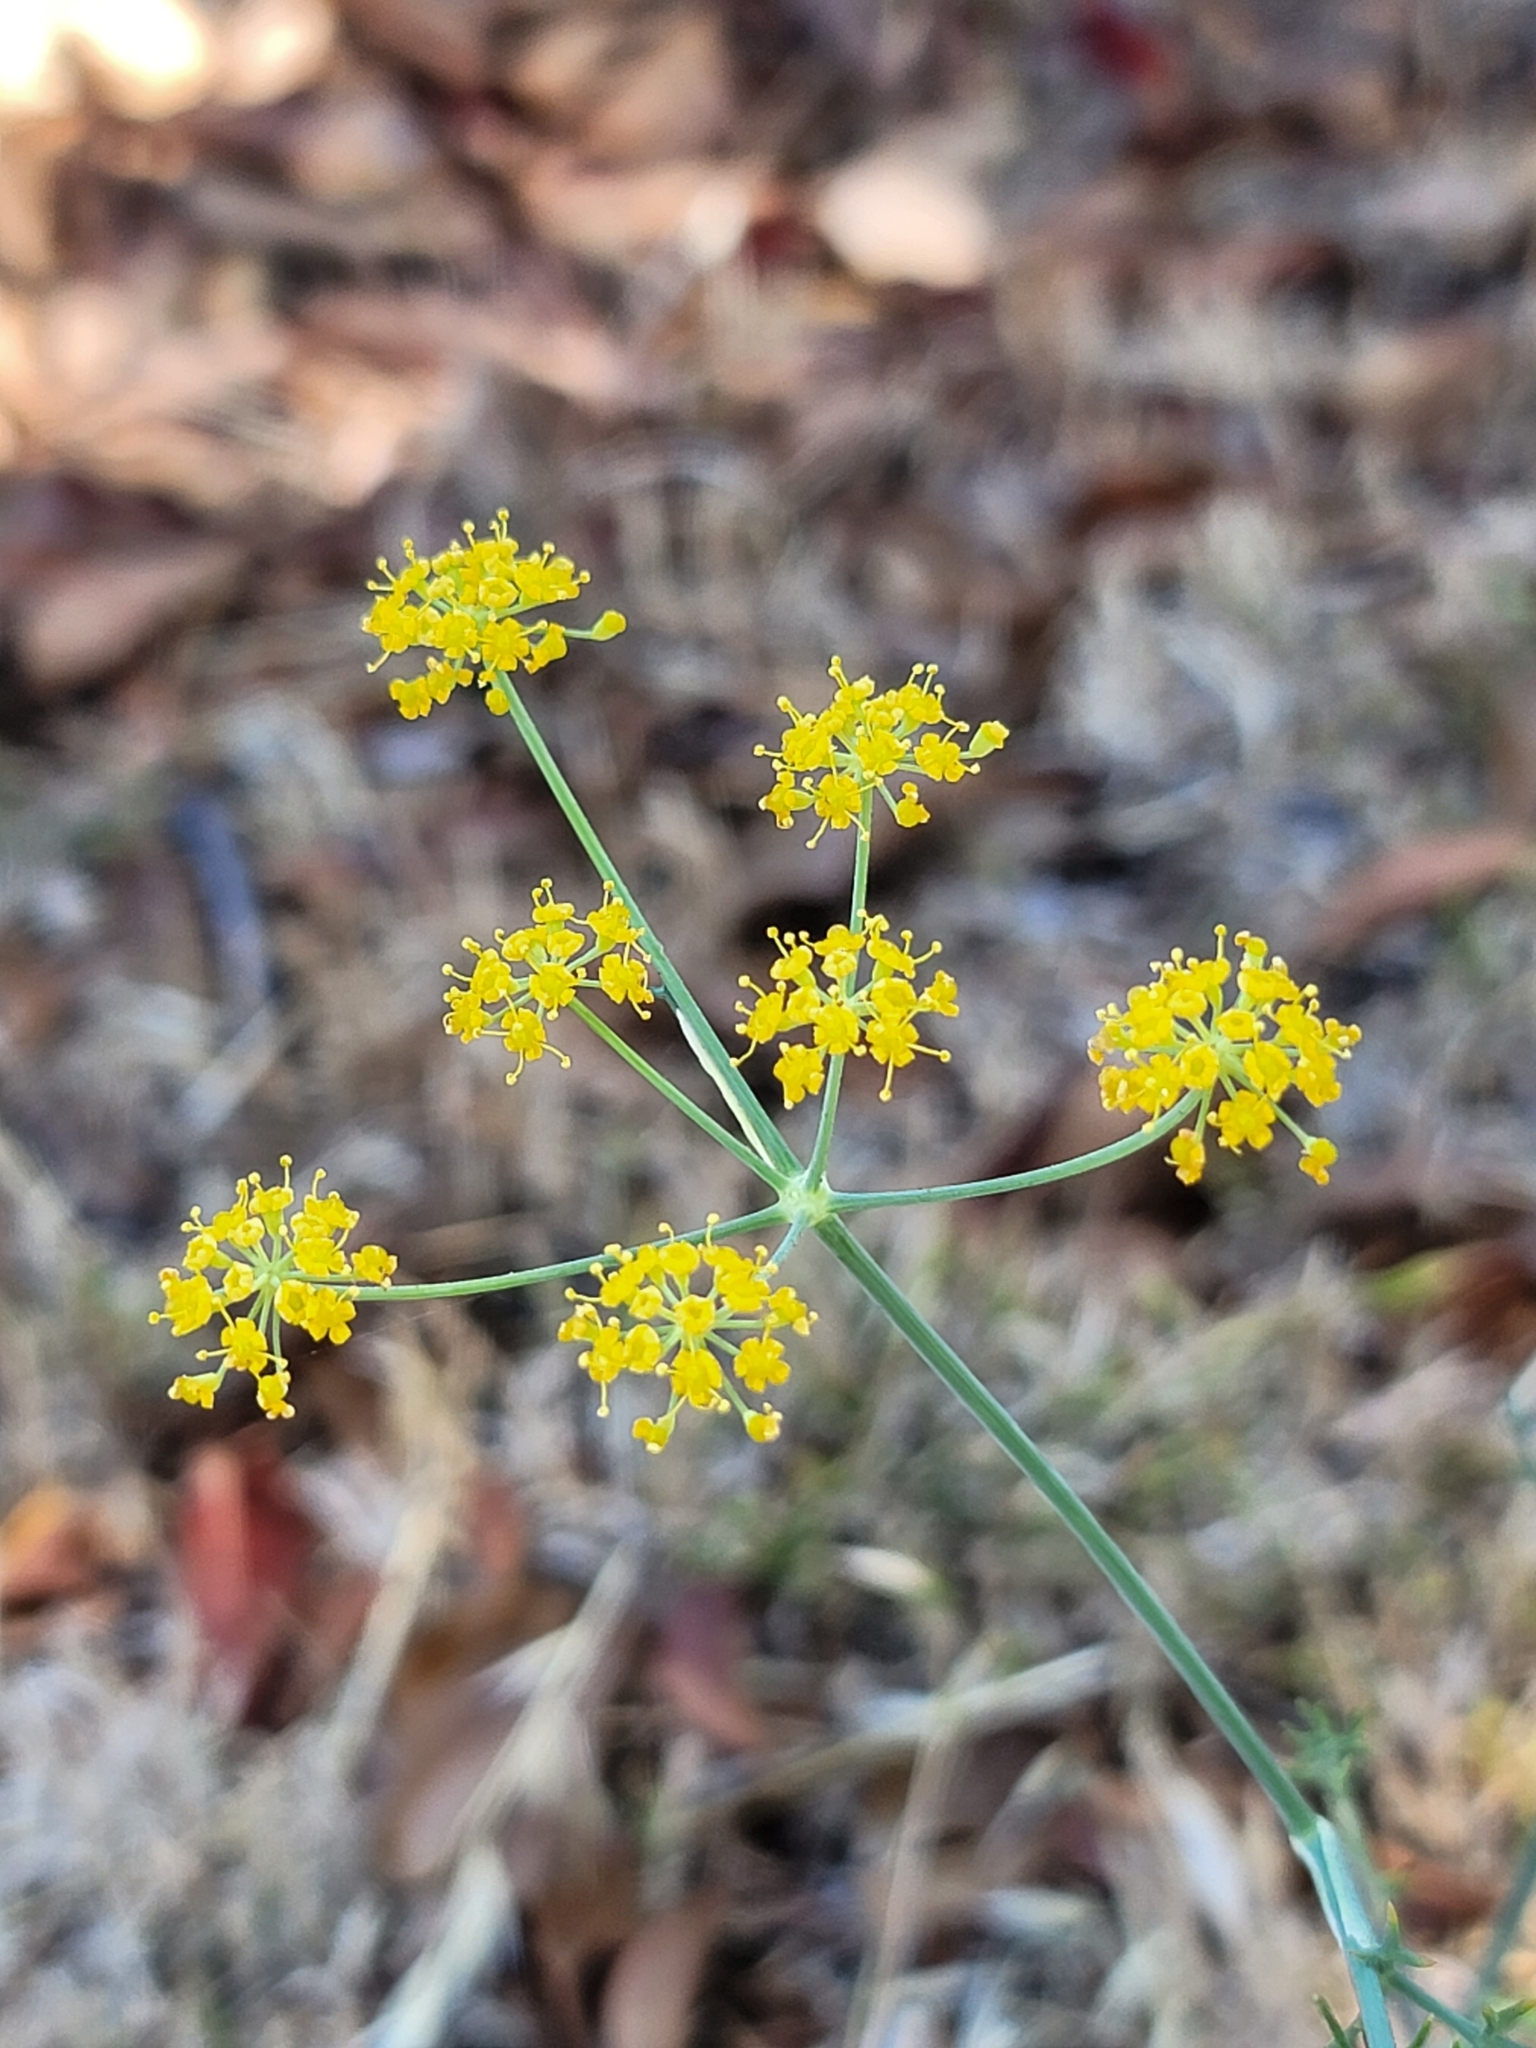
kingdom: Plantae
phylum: Tracheophyta
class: Magnoliopsida
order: Apiales
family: Apiaceae
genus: Foeniculum
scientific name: Foeniculum vulgare
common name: Fennel
